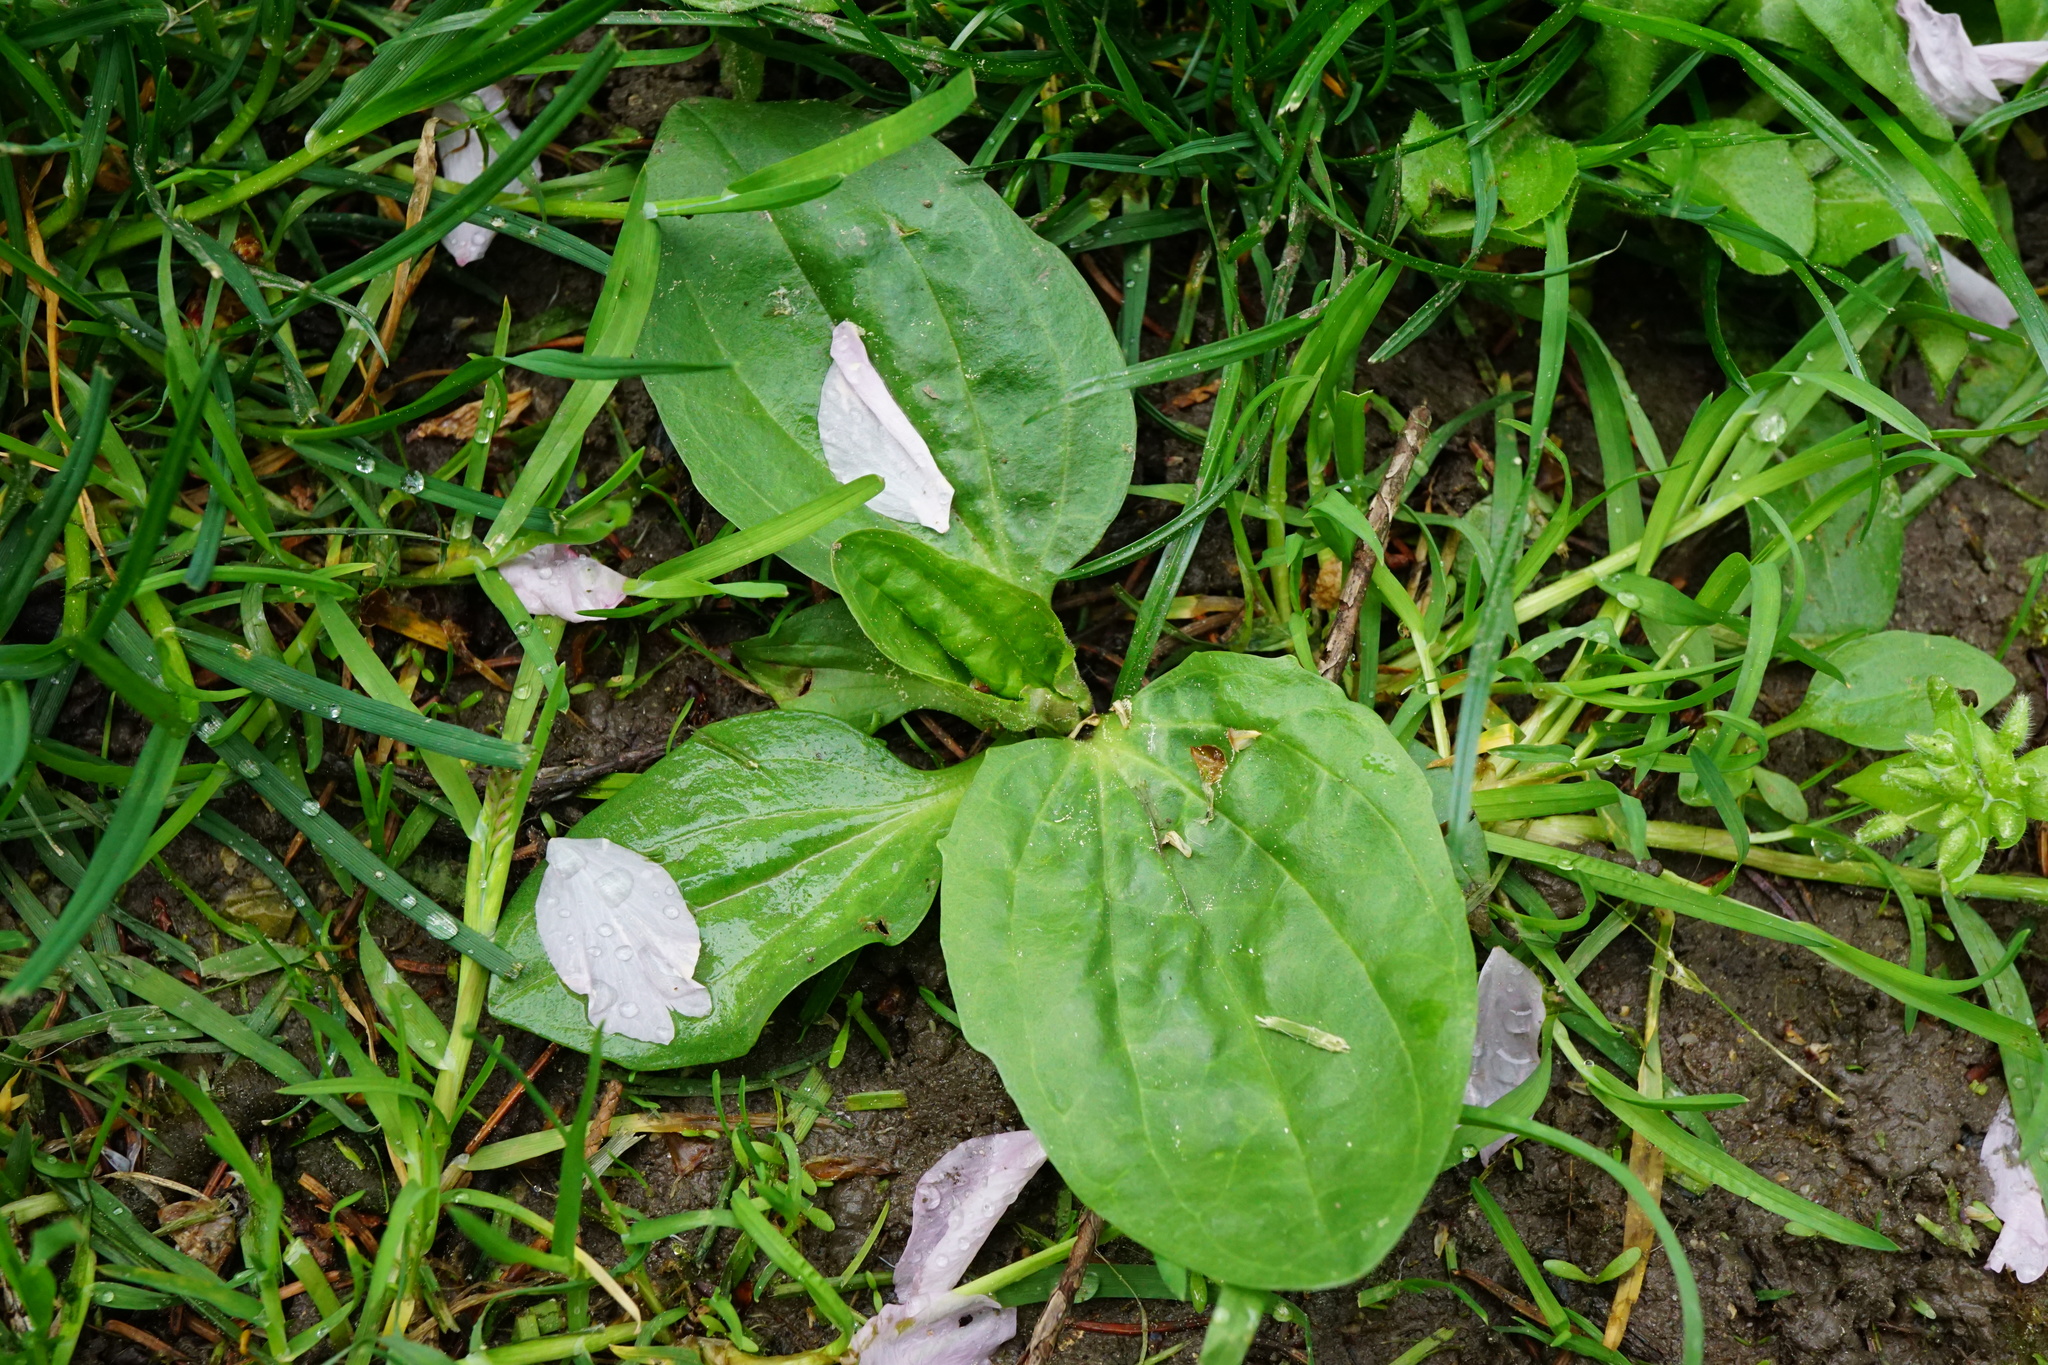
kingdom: Plantae
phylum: Tracheophyta
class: Magnoliopsida
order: Lamiales
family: Plantaginaceae
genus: Plantago
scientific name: Plantago major
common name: Common plantain
